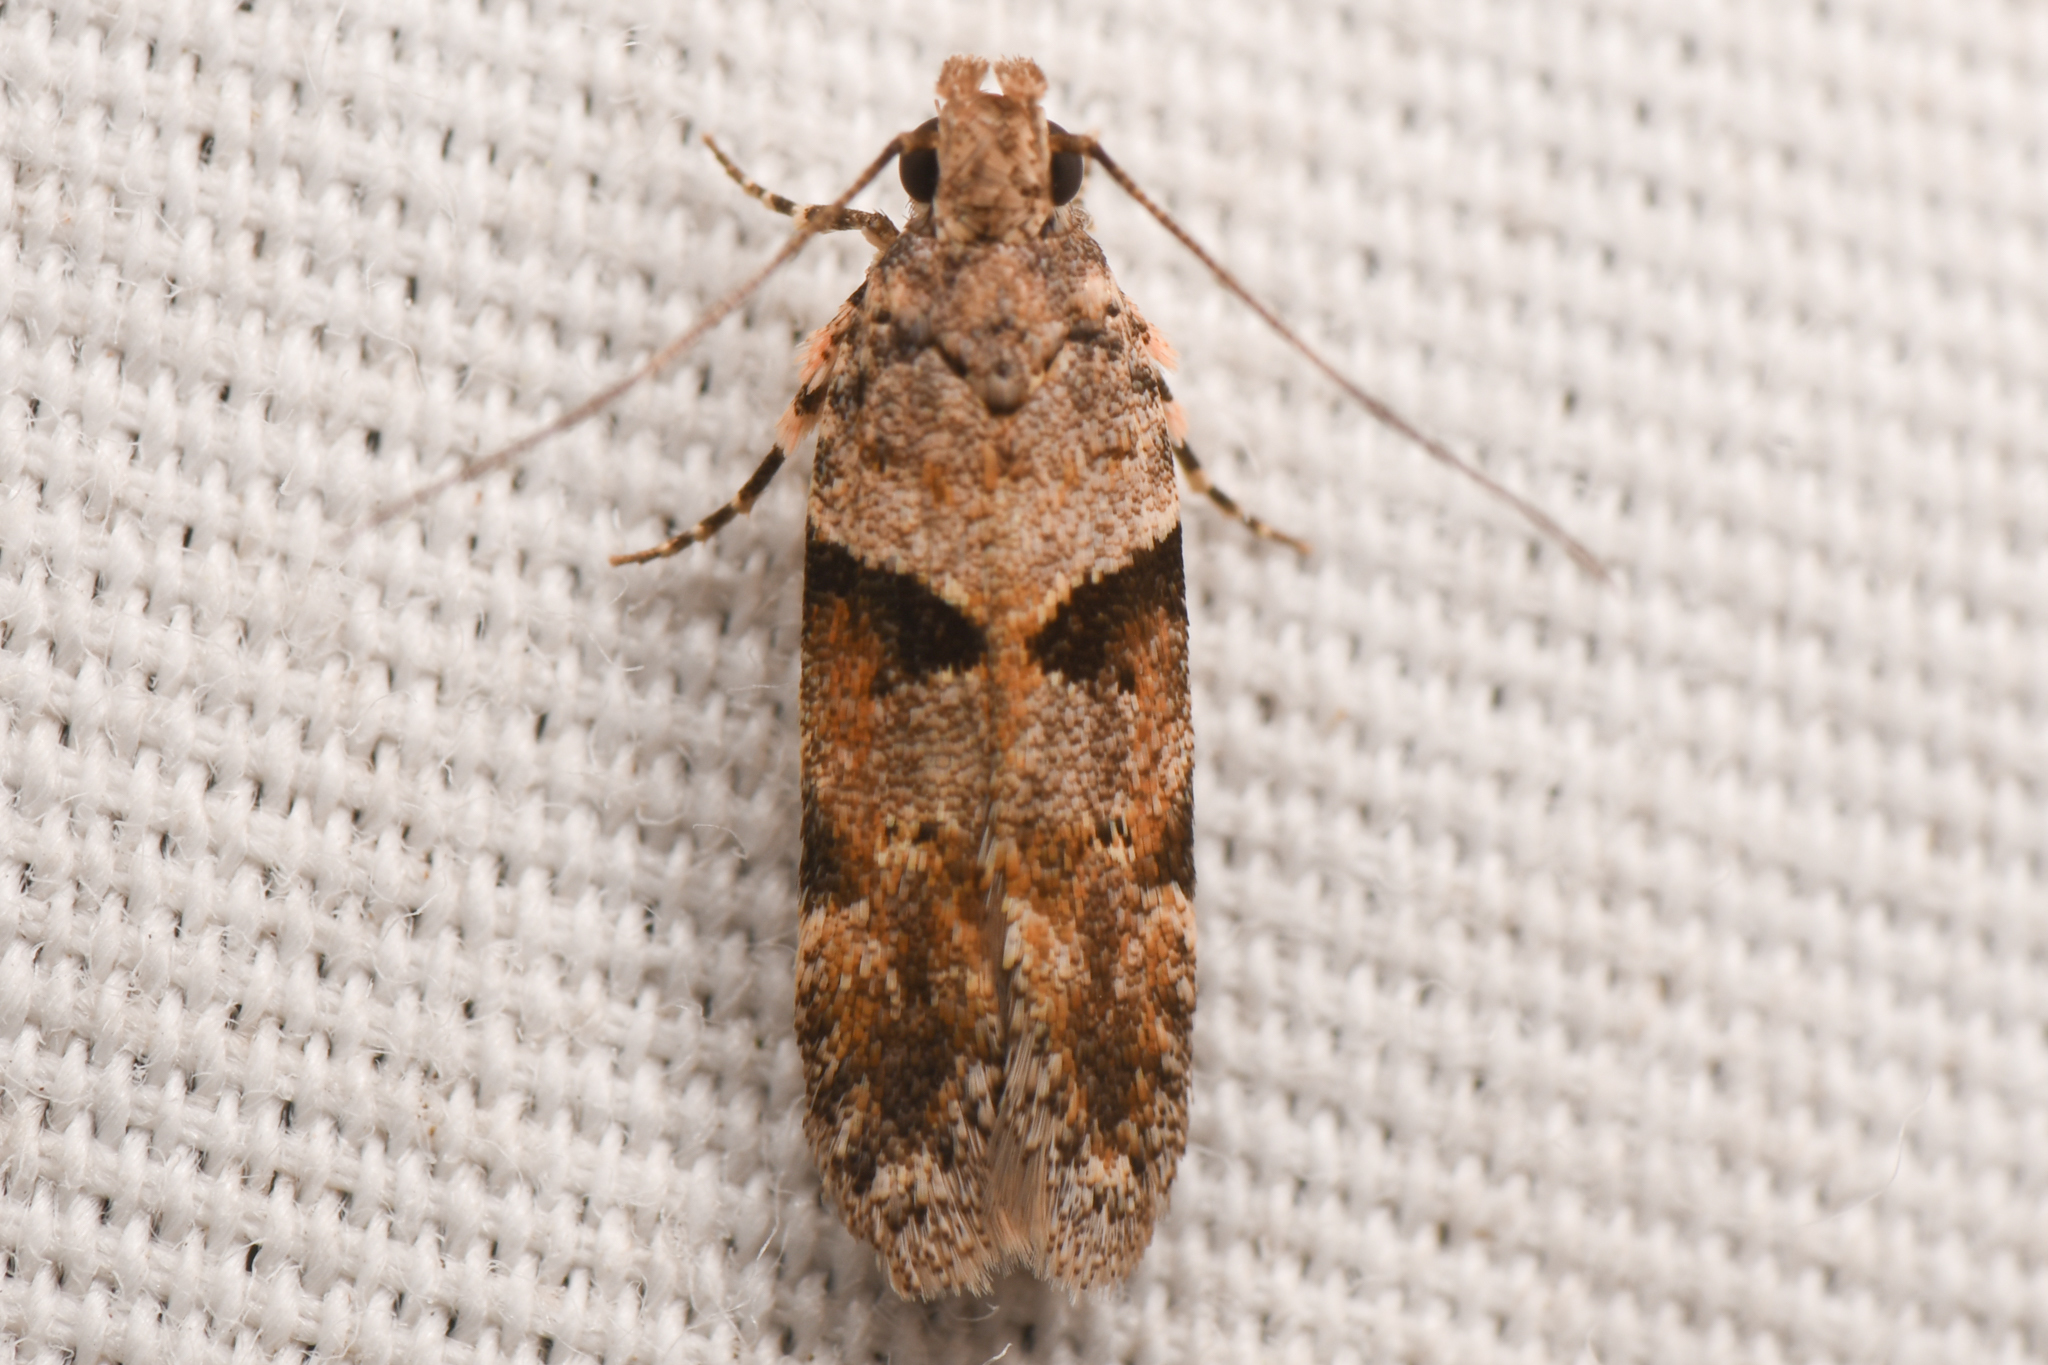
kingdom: Animalia
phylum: Arthropoda
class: Insecta
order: Lepidoptera
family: Gelechiidae
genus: Faculta
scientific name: Faculta inaequalis
